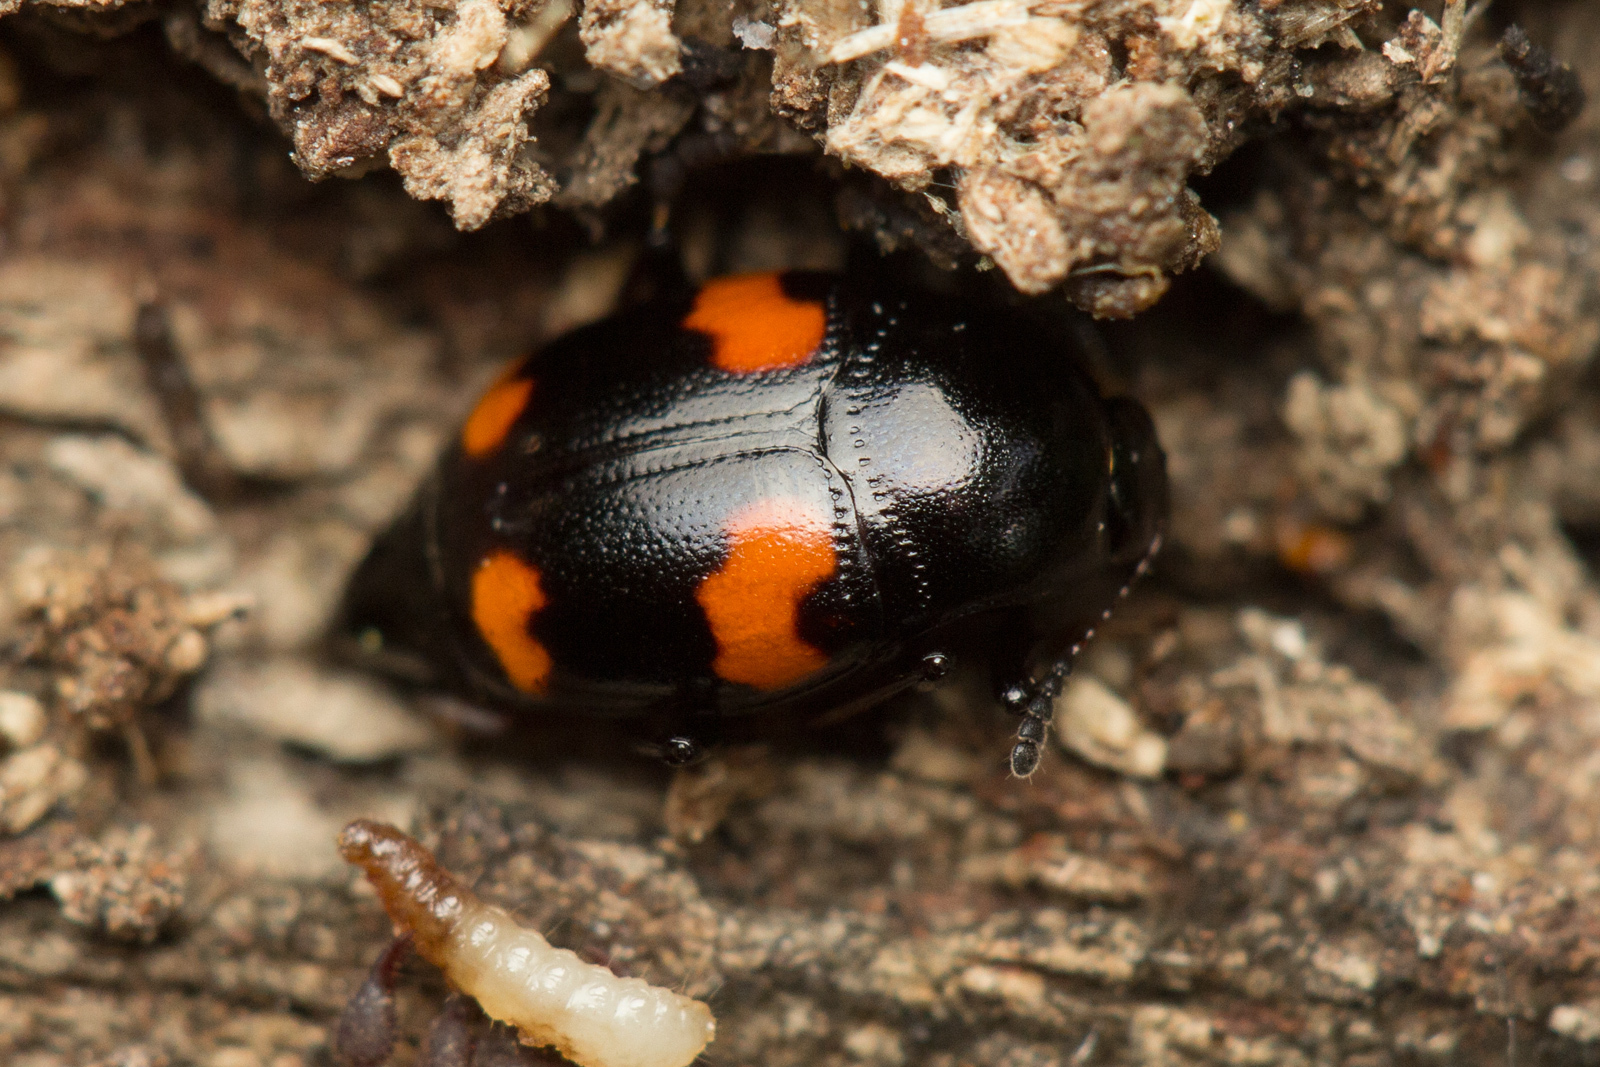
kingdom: Animalia
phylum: Arthropoda
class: Insecta
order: Coleoptera
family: Staphylinidae
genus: Scaphidium
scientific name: Scaphidium quadrimaculatum
